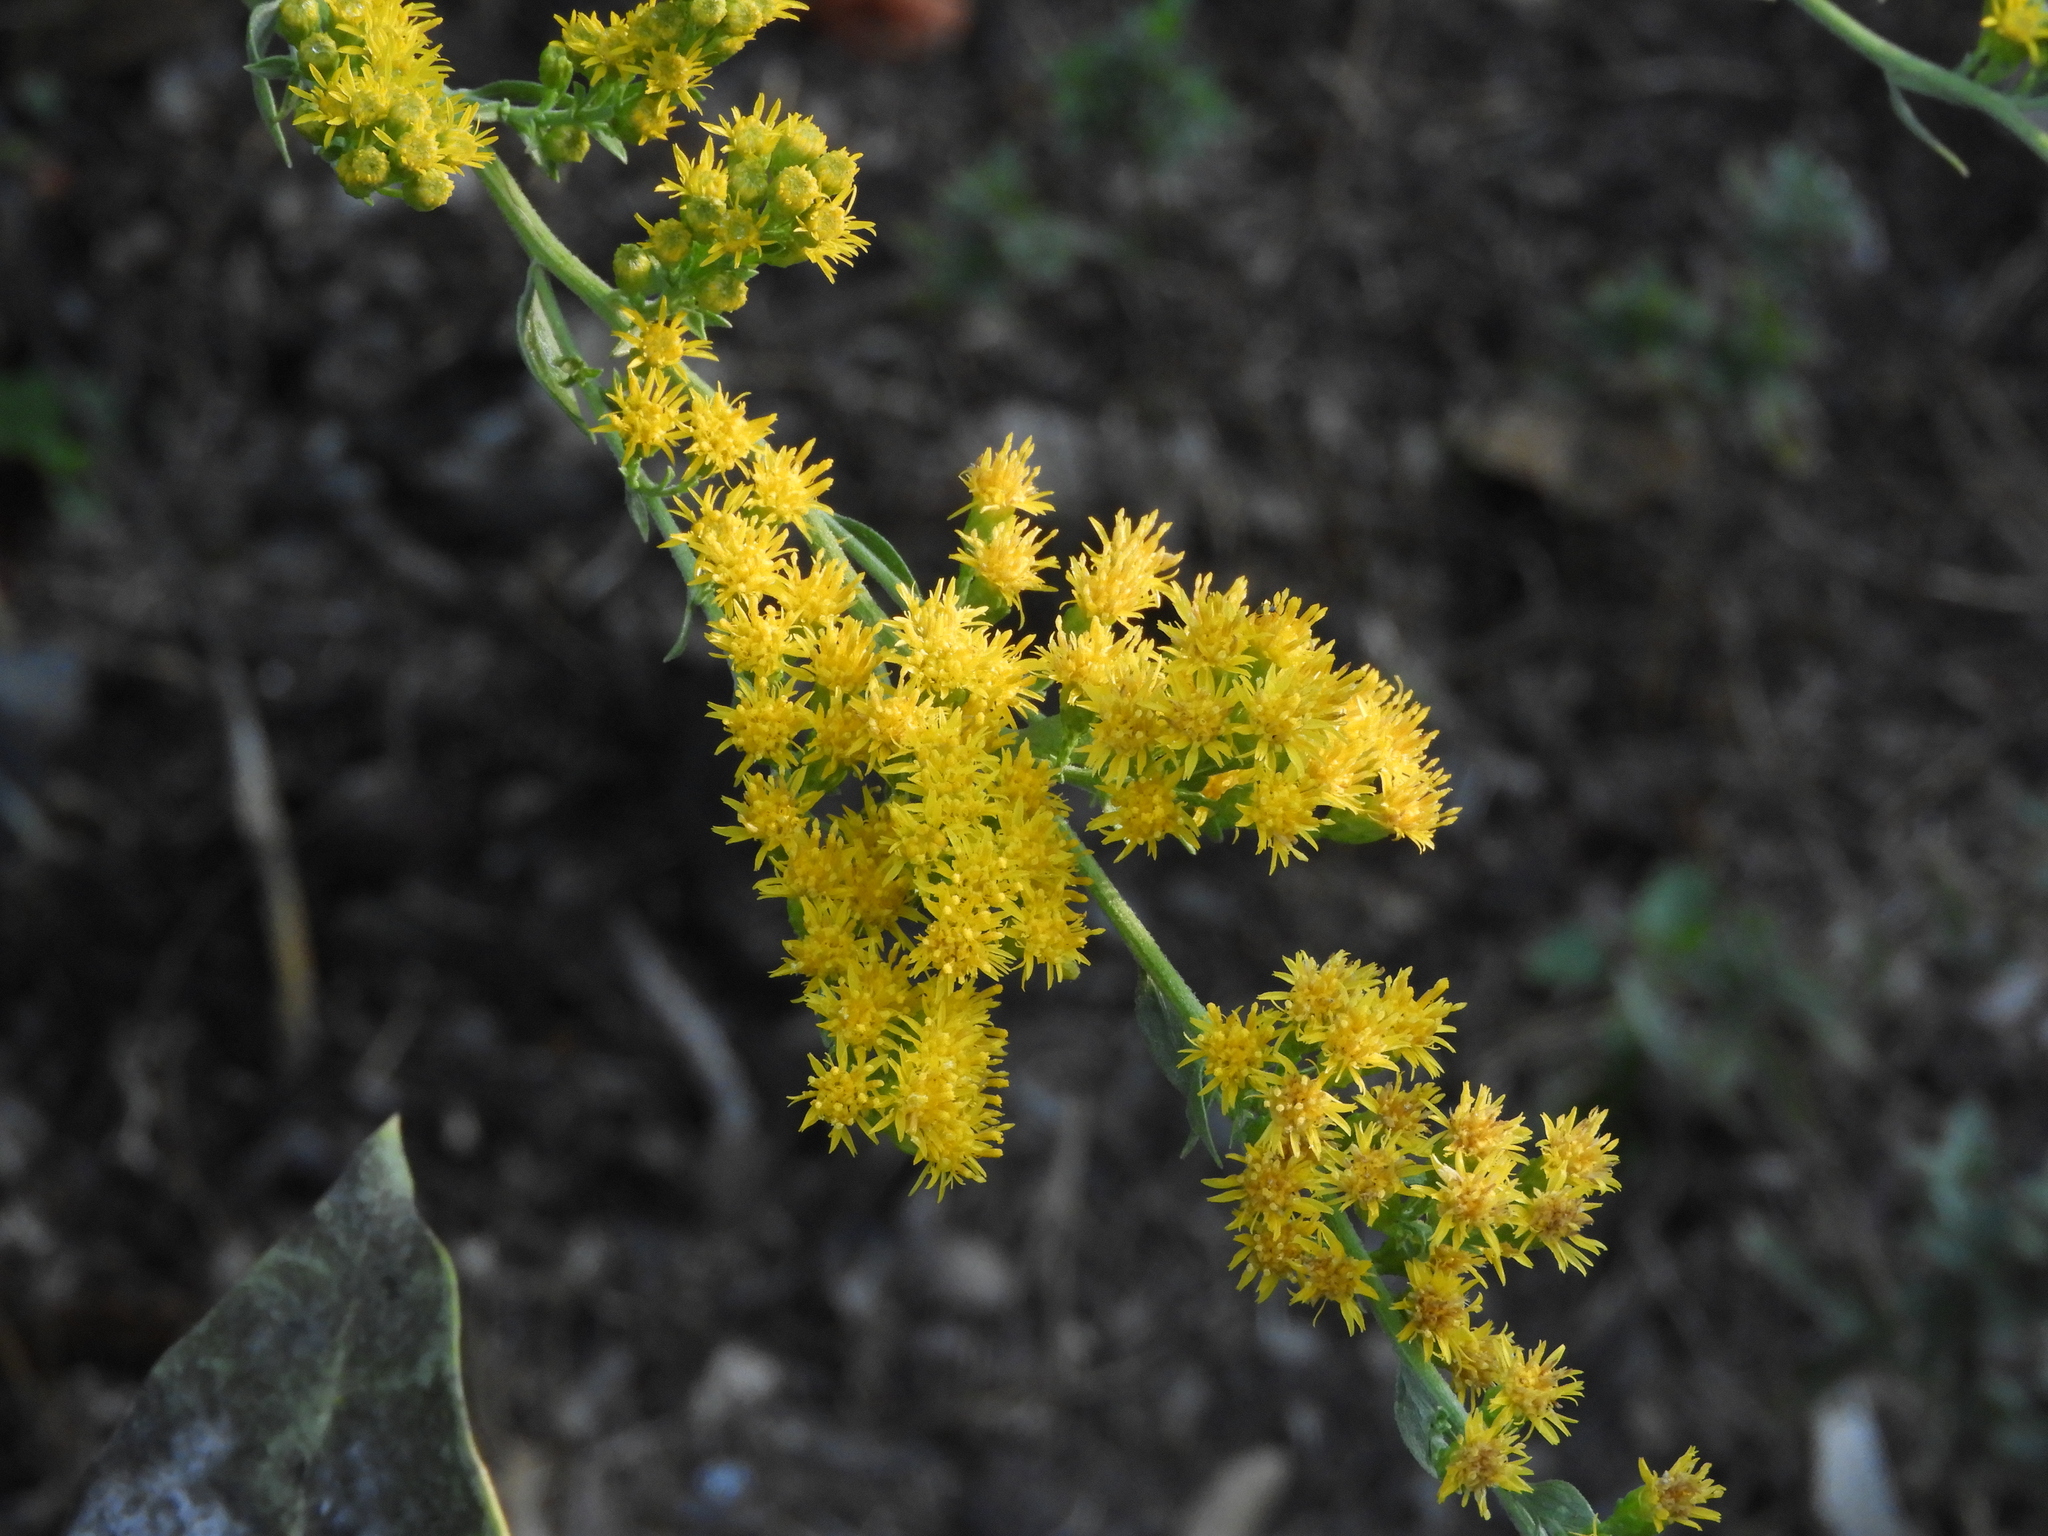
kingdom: Plantae
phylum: Tracheophyta
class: Magnoliopsida
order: Asterales
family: Asteraceae
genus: Solidago
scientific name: Solidago velutina
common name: Three-nerve goldenrod
